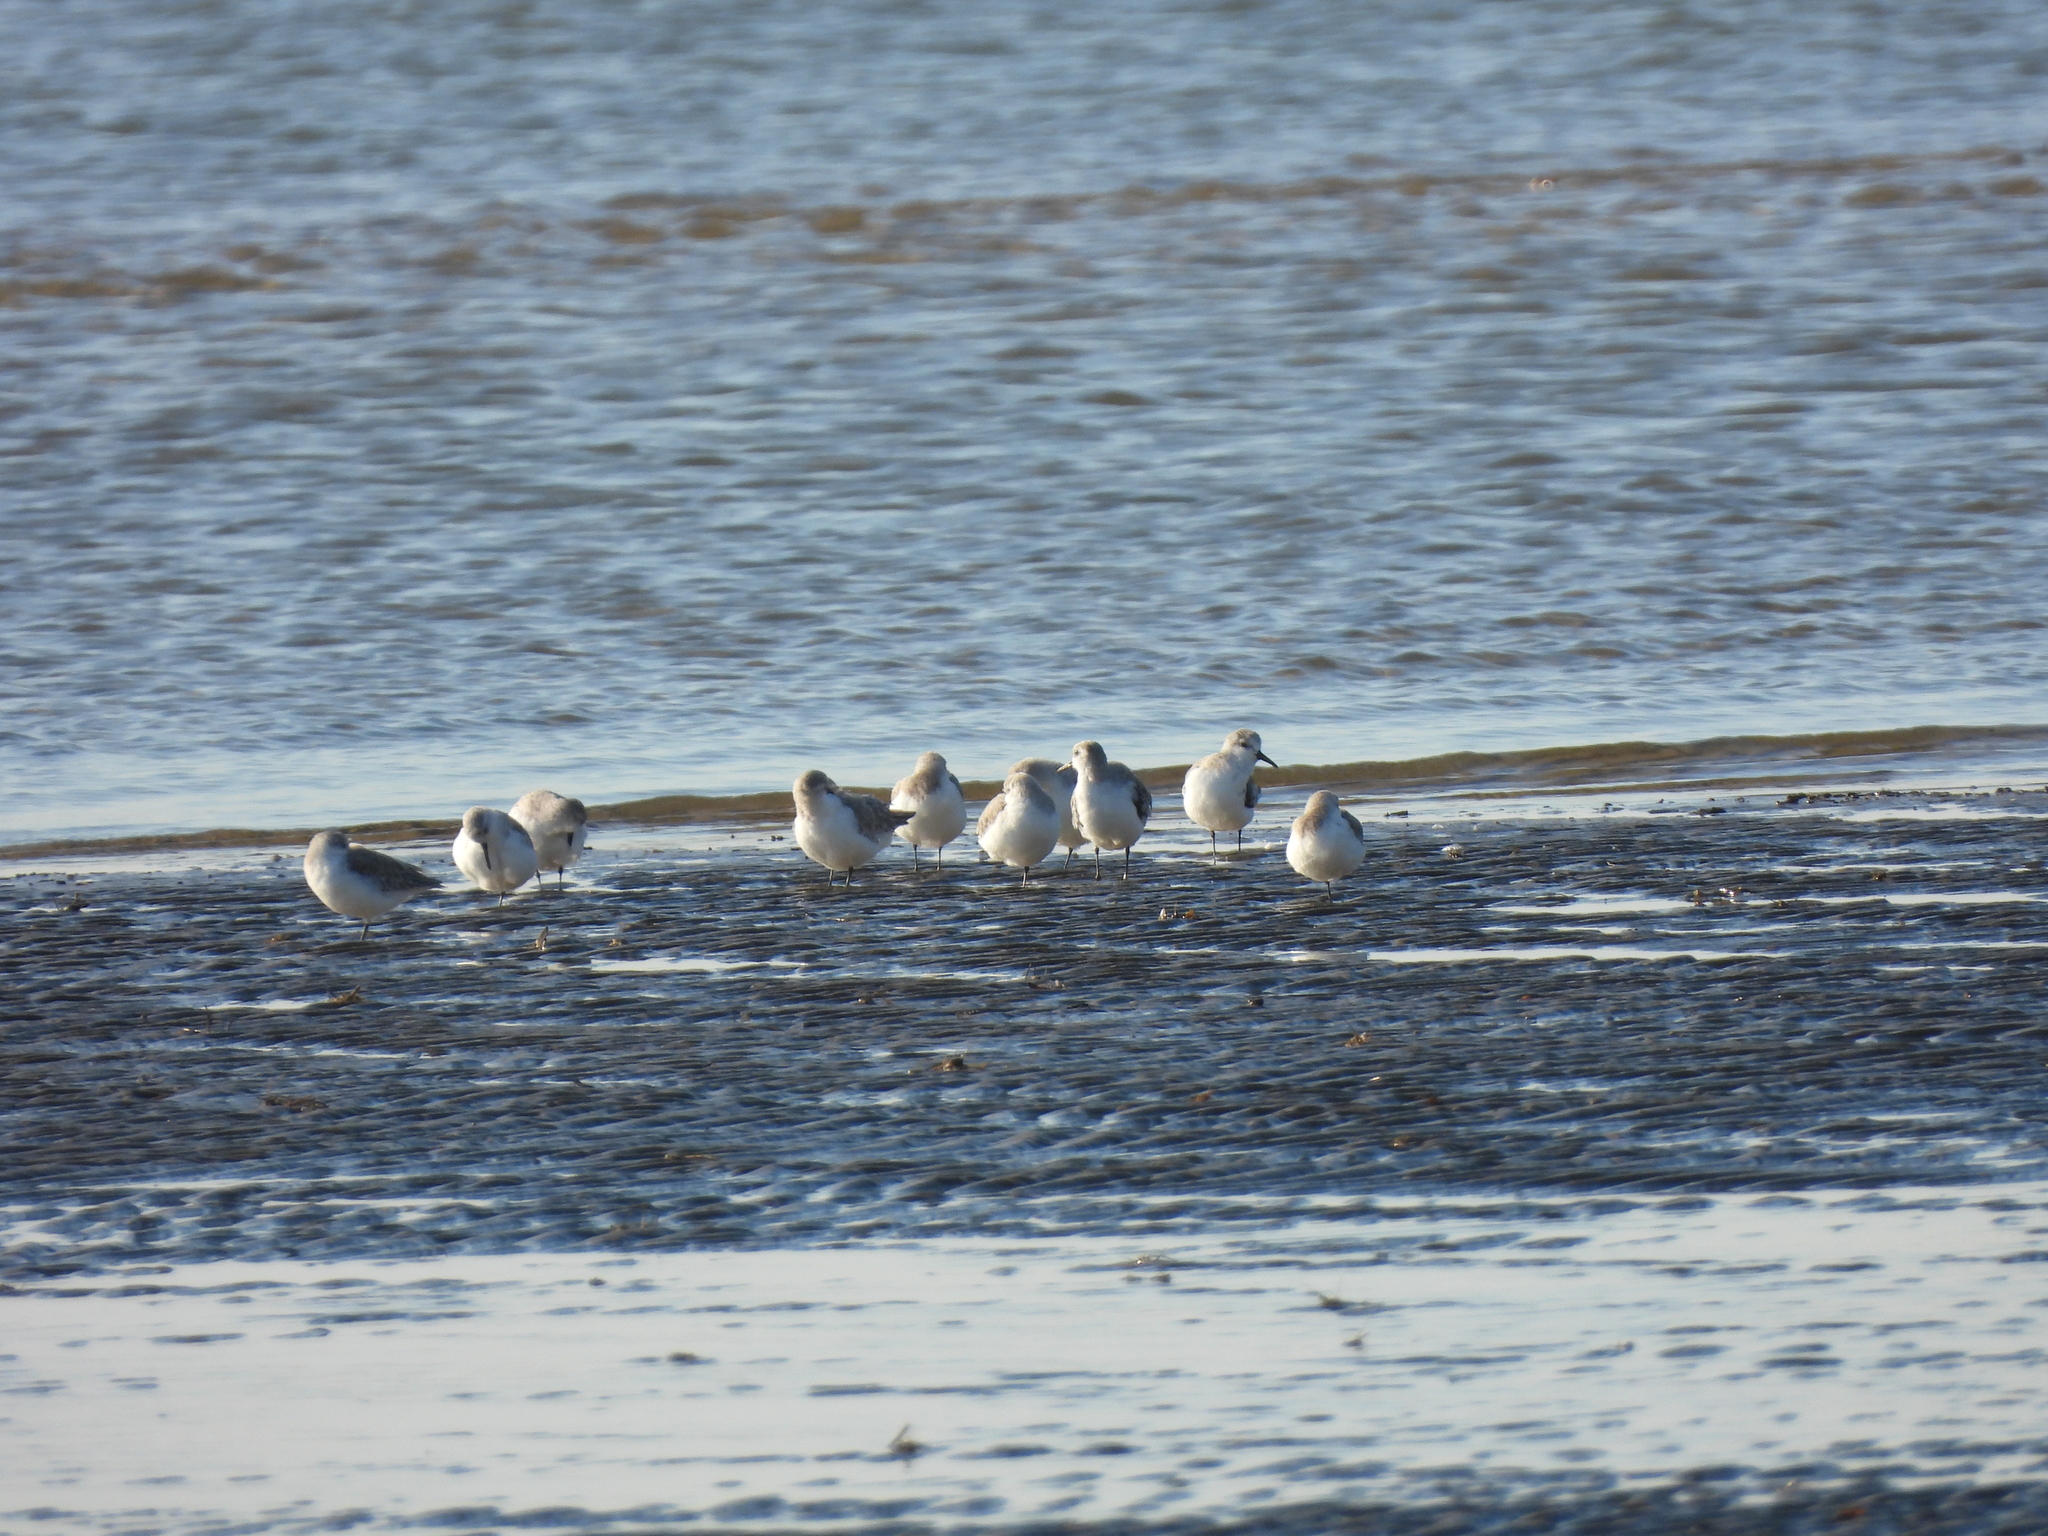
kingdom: Animalia
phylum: Chordata
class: Aves
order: Charadriiformes
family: Scolopacidae
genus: Calidris
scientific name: Calidris alba
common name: Sanderling
